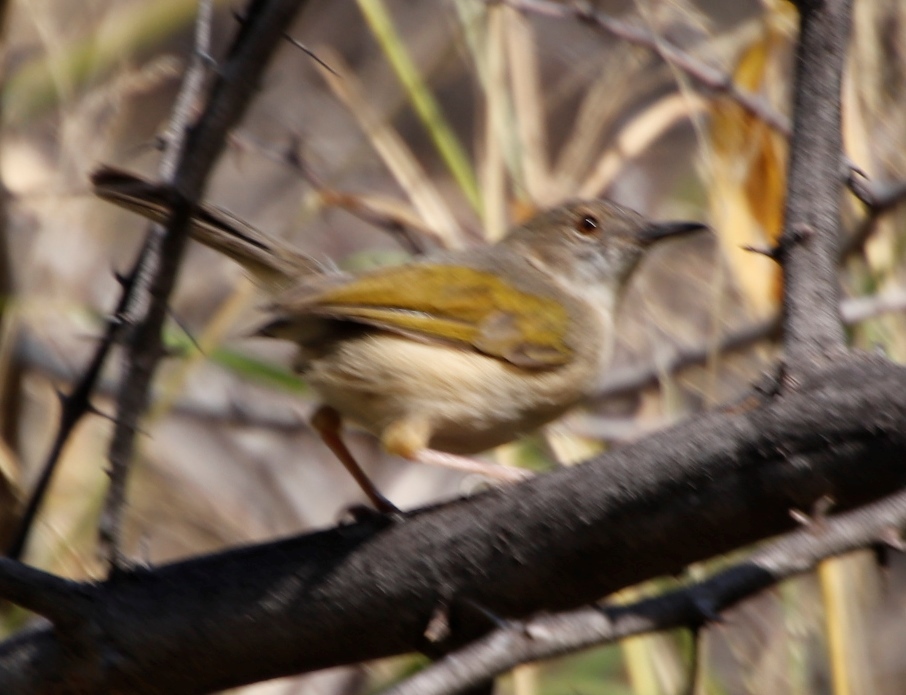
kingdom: Animalia
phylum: Chordata
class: Aves
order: Passeriformes
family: Cisticolidae
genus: Camaroptera
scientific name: Camaroptera brachyura
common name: Green-backed camaroptera
